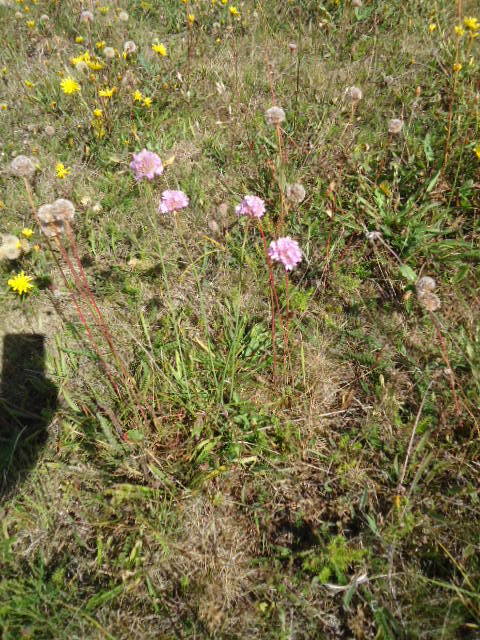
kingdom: Plantae
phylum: Tracheophyta
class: Magnoliopsida
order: Caryophyllales
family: Plumbaginaceae
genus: Armeria
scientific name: Armeria maritima
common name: Thrift
